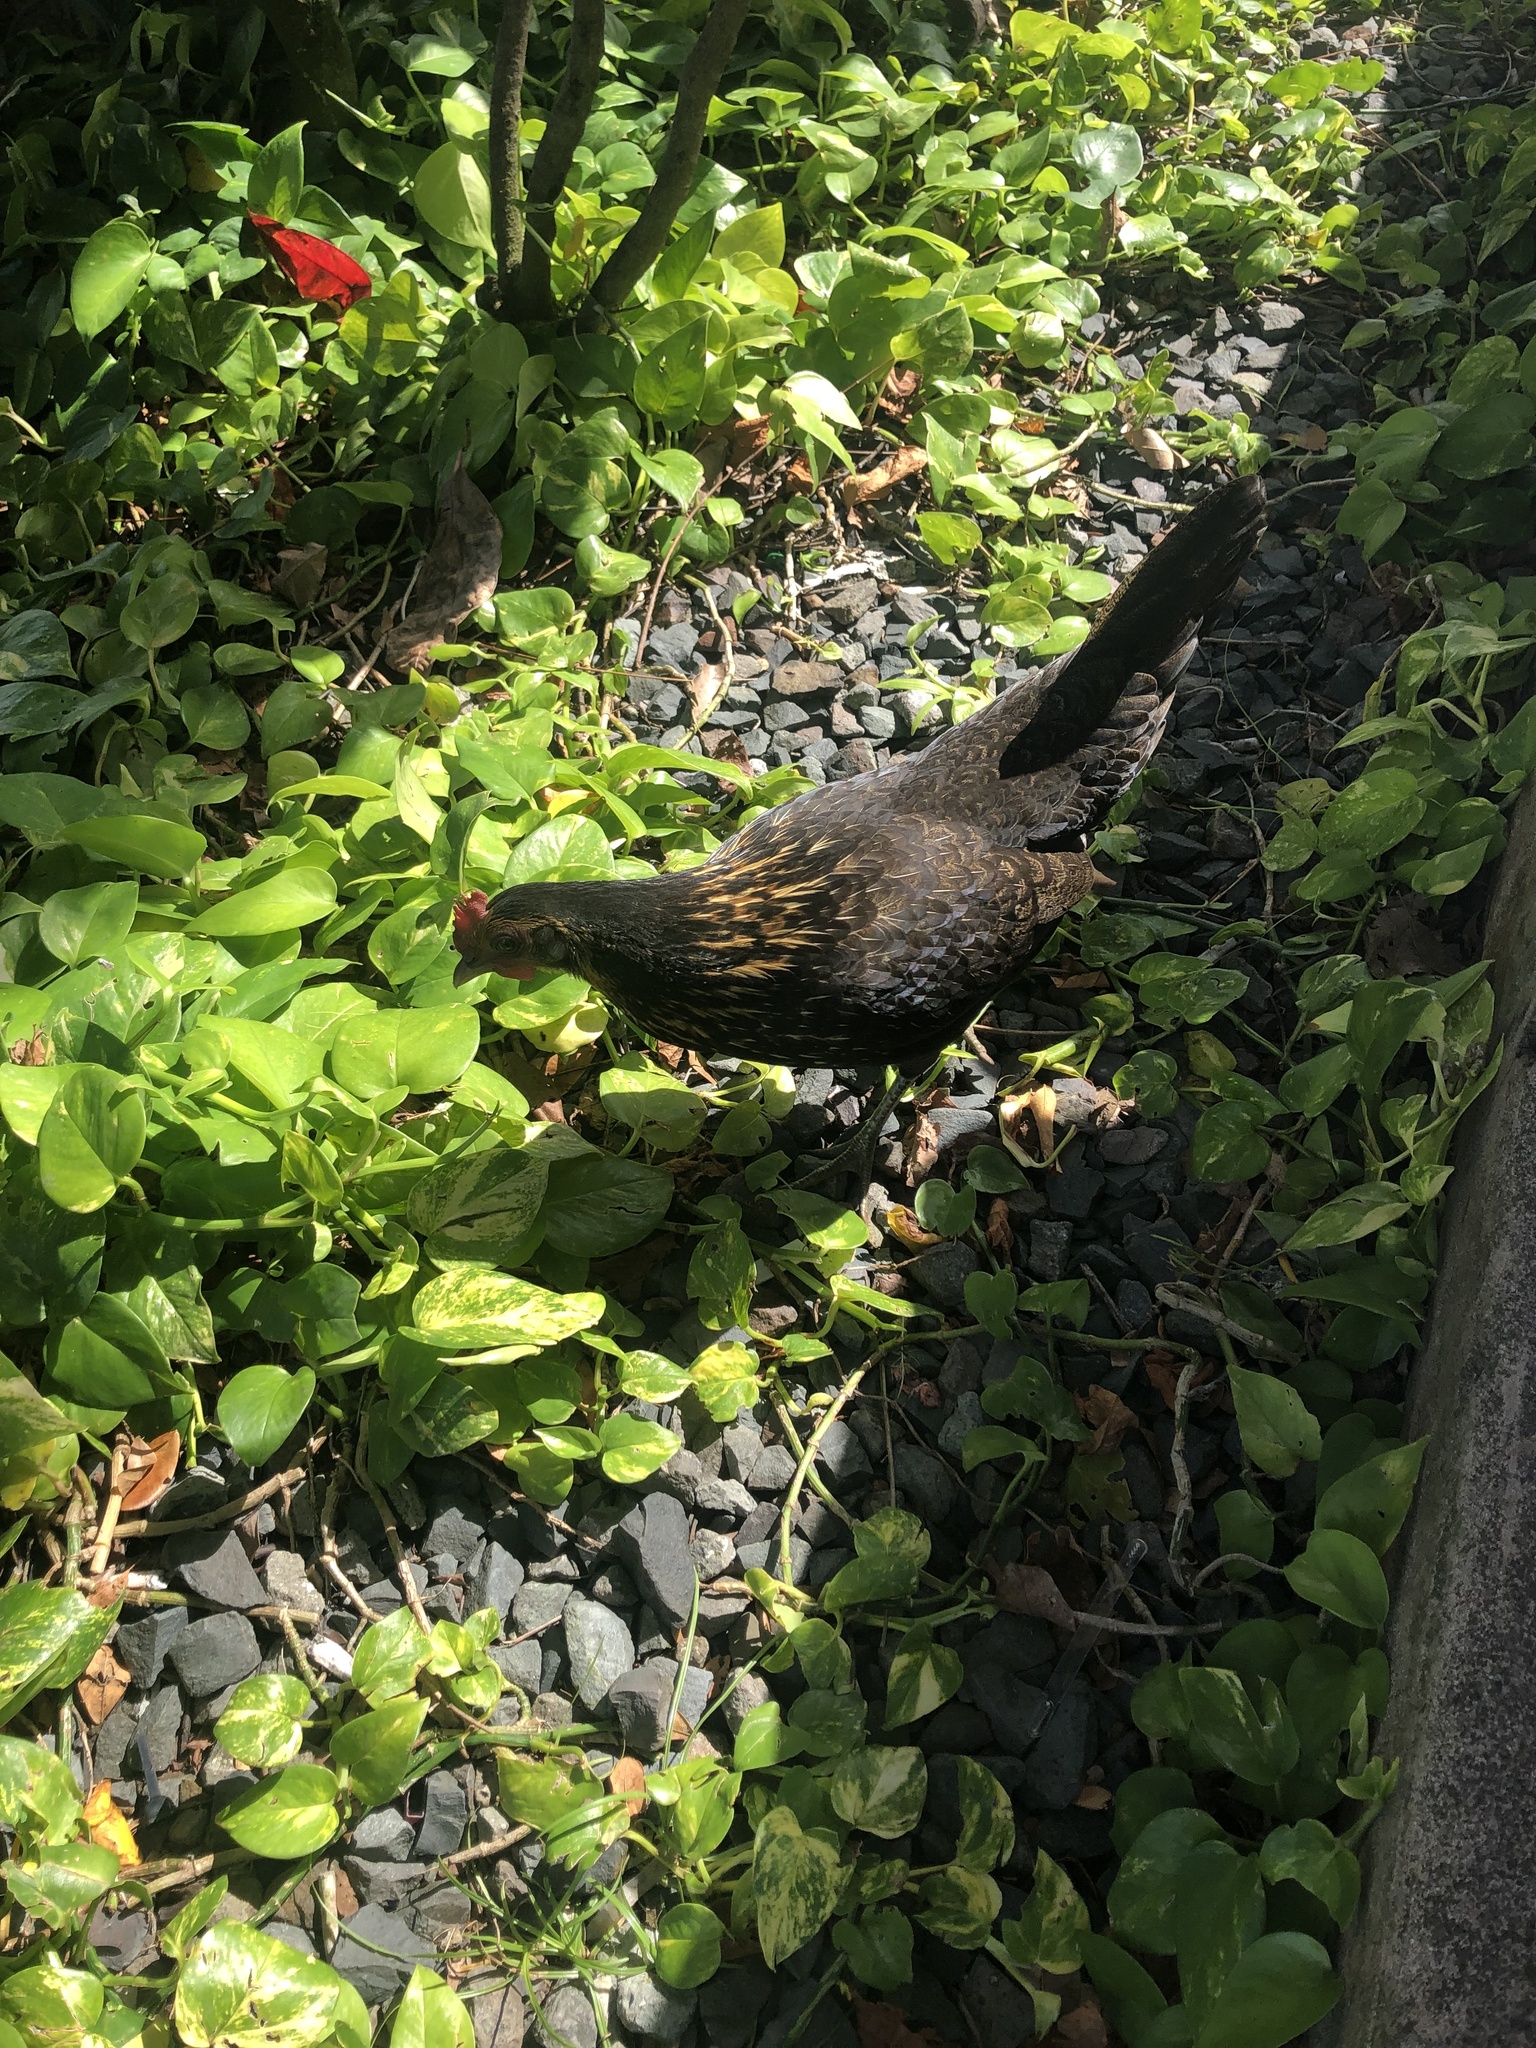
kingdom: Animalia
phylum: Chordata
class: Aves
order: Galliformes
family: Phasianidae
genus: Gallus
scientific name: Gallus gallus
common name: Red junglefowl
